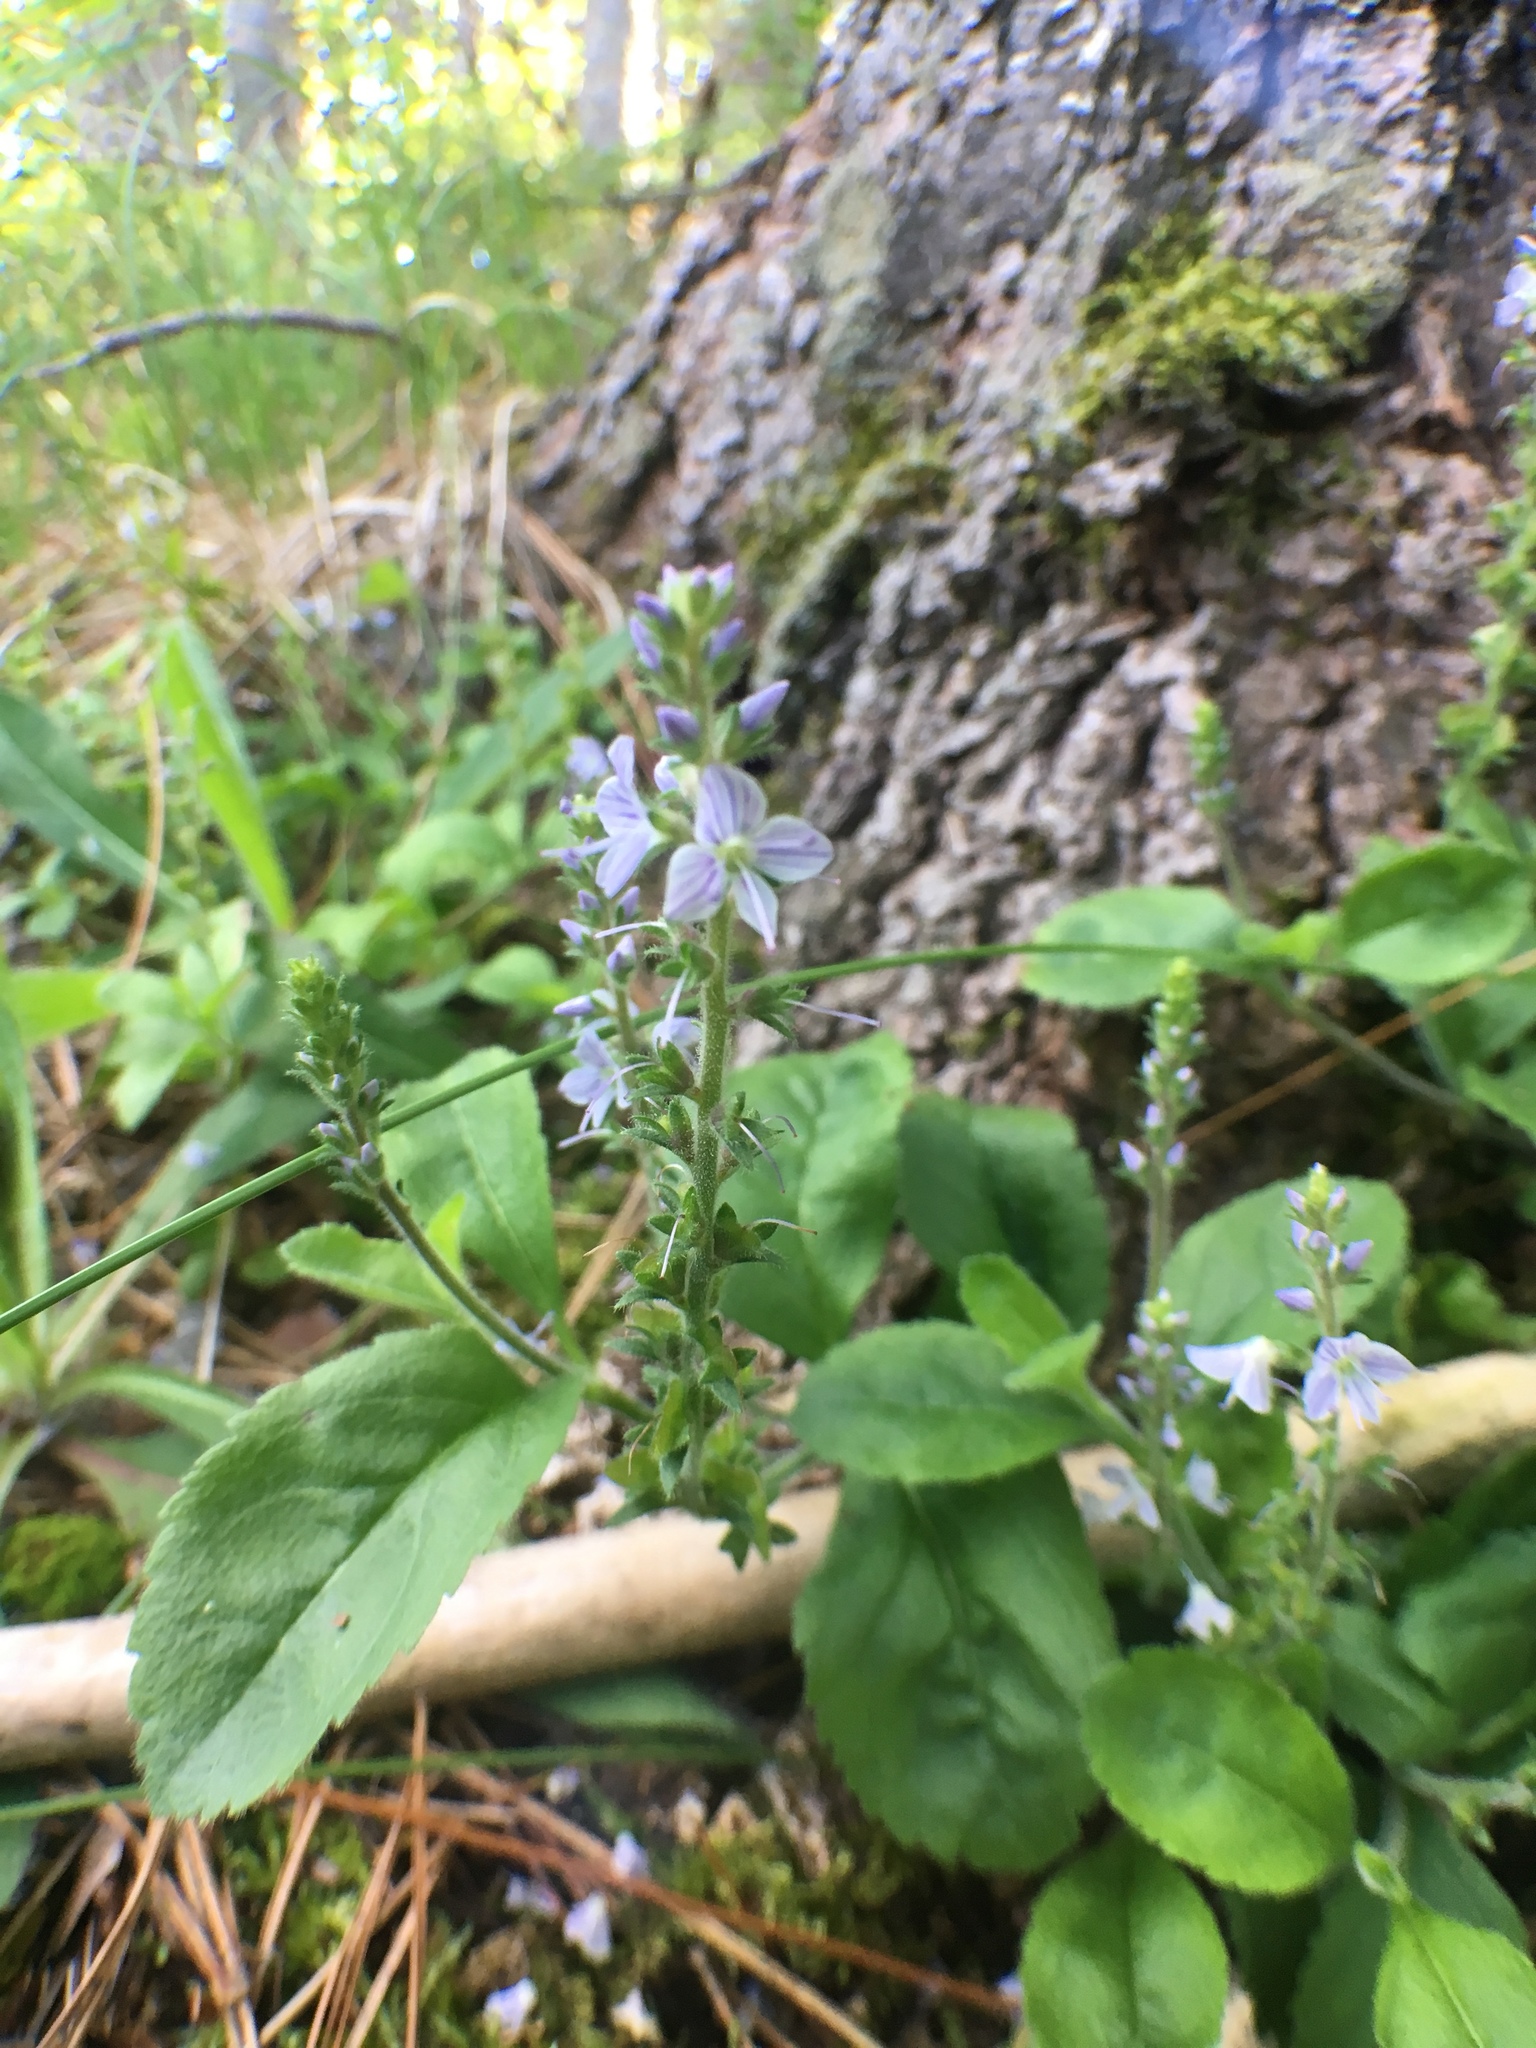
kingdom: Plantae
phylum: Tracheophyta
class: Magnoliopsida
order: Lamiales
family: Plantaginaceae
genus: Veronica
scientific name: Veronica officinalis
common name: Common speedwell
